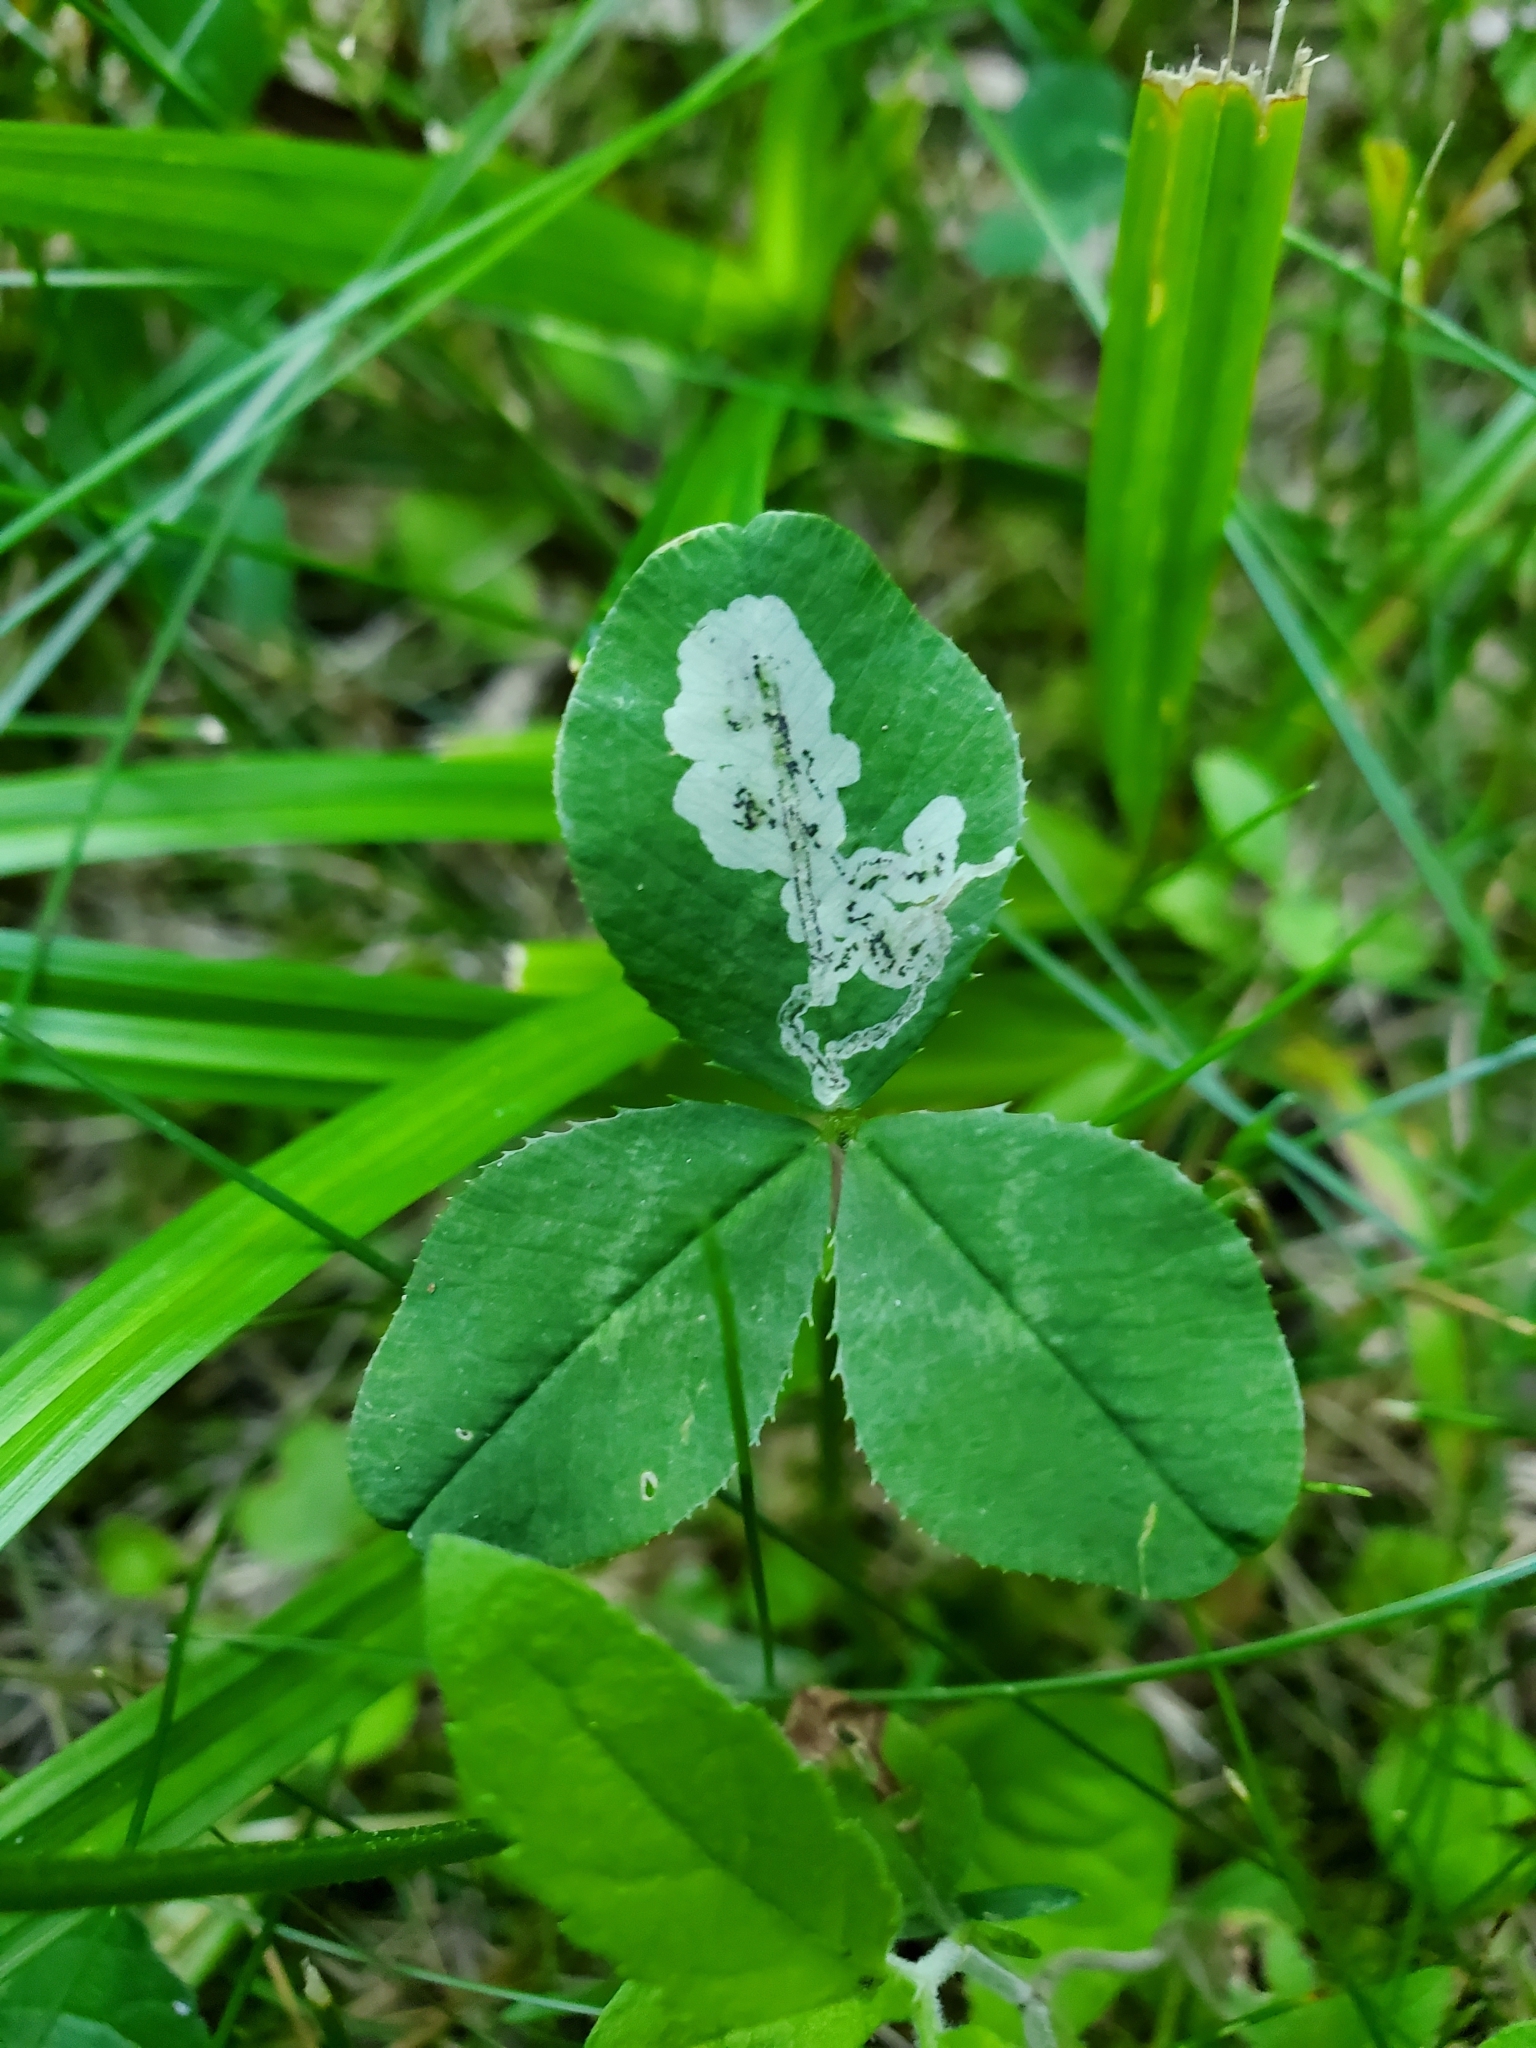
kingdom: Animalia
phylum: Arthropoda
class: Insecta
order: Diptera
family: Agromyzidae
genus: Liriomyza
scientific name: Liriomyza fricki
